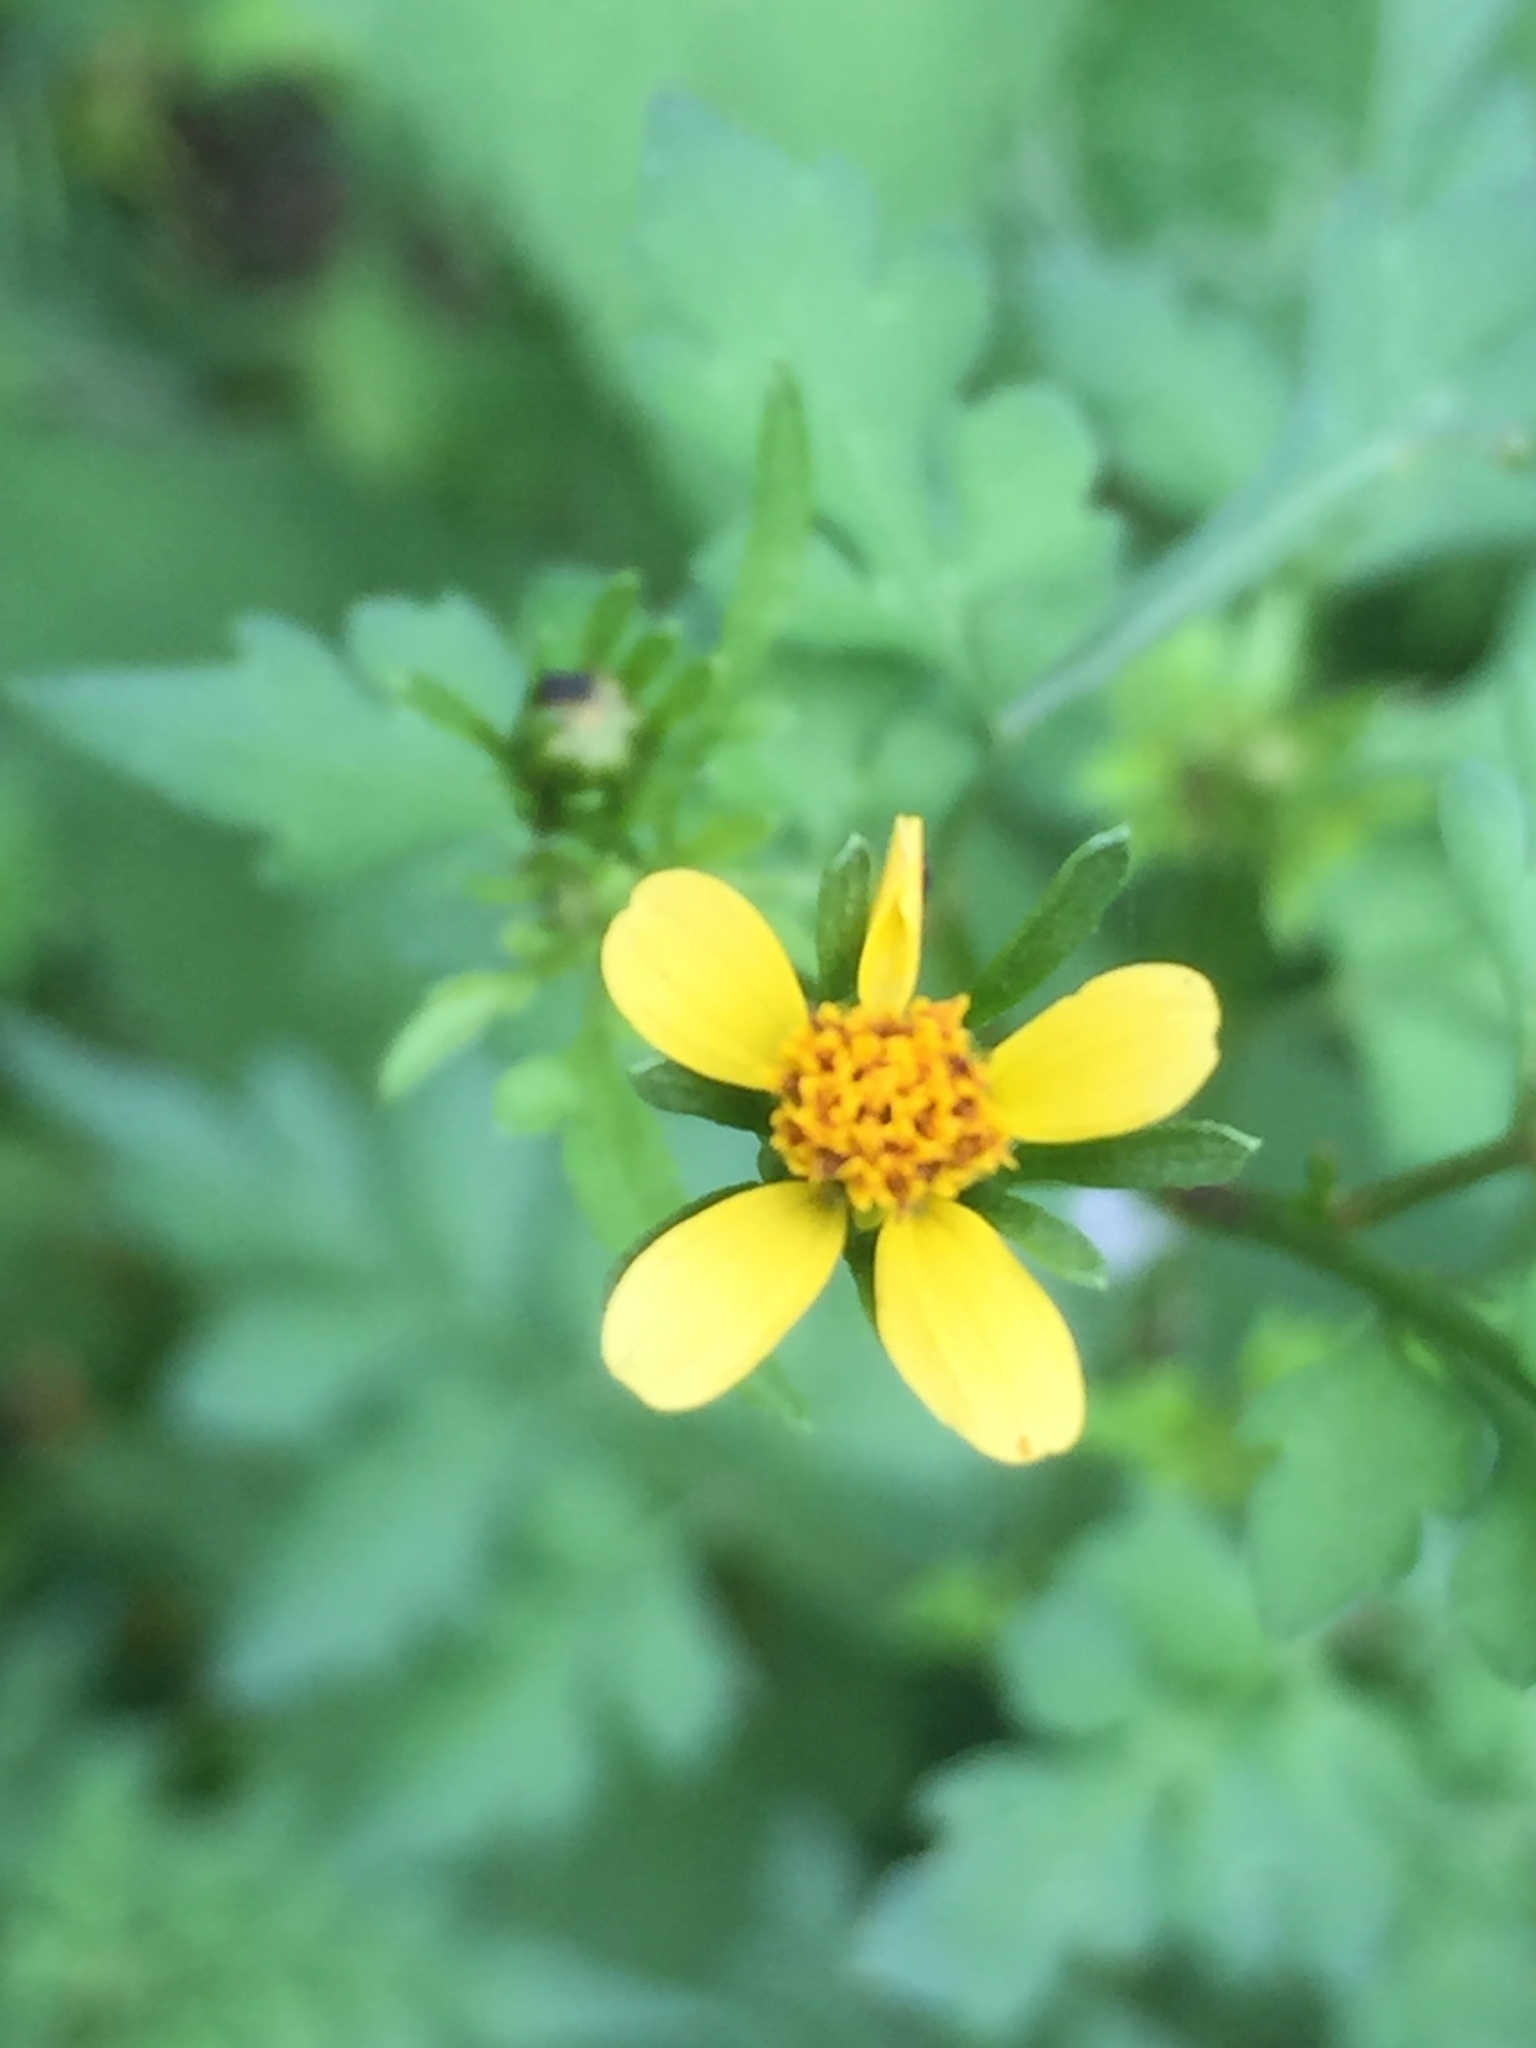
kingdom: Plantae
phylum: Tracheophyta
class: Magnoliopsida
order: Asterales
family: Asteraceae
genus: Bidens
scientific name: Bidens bipinnata
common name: Spanish-needles
